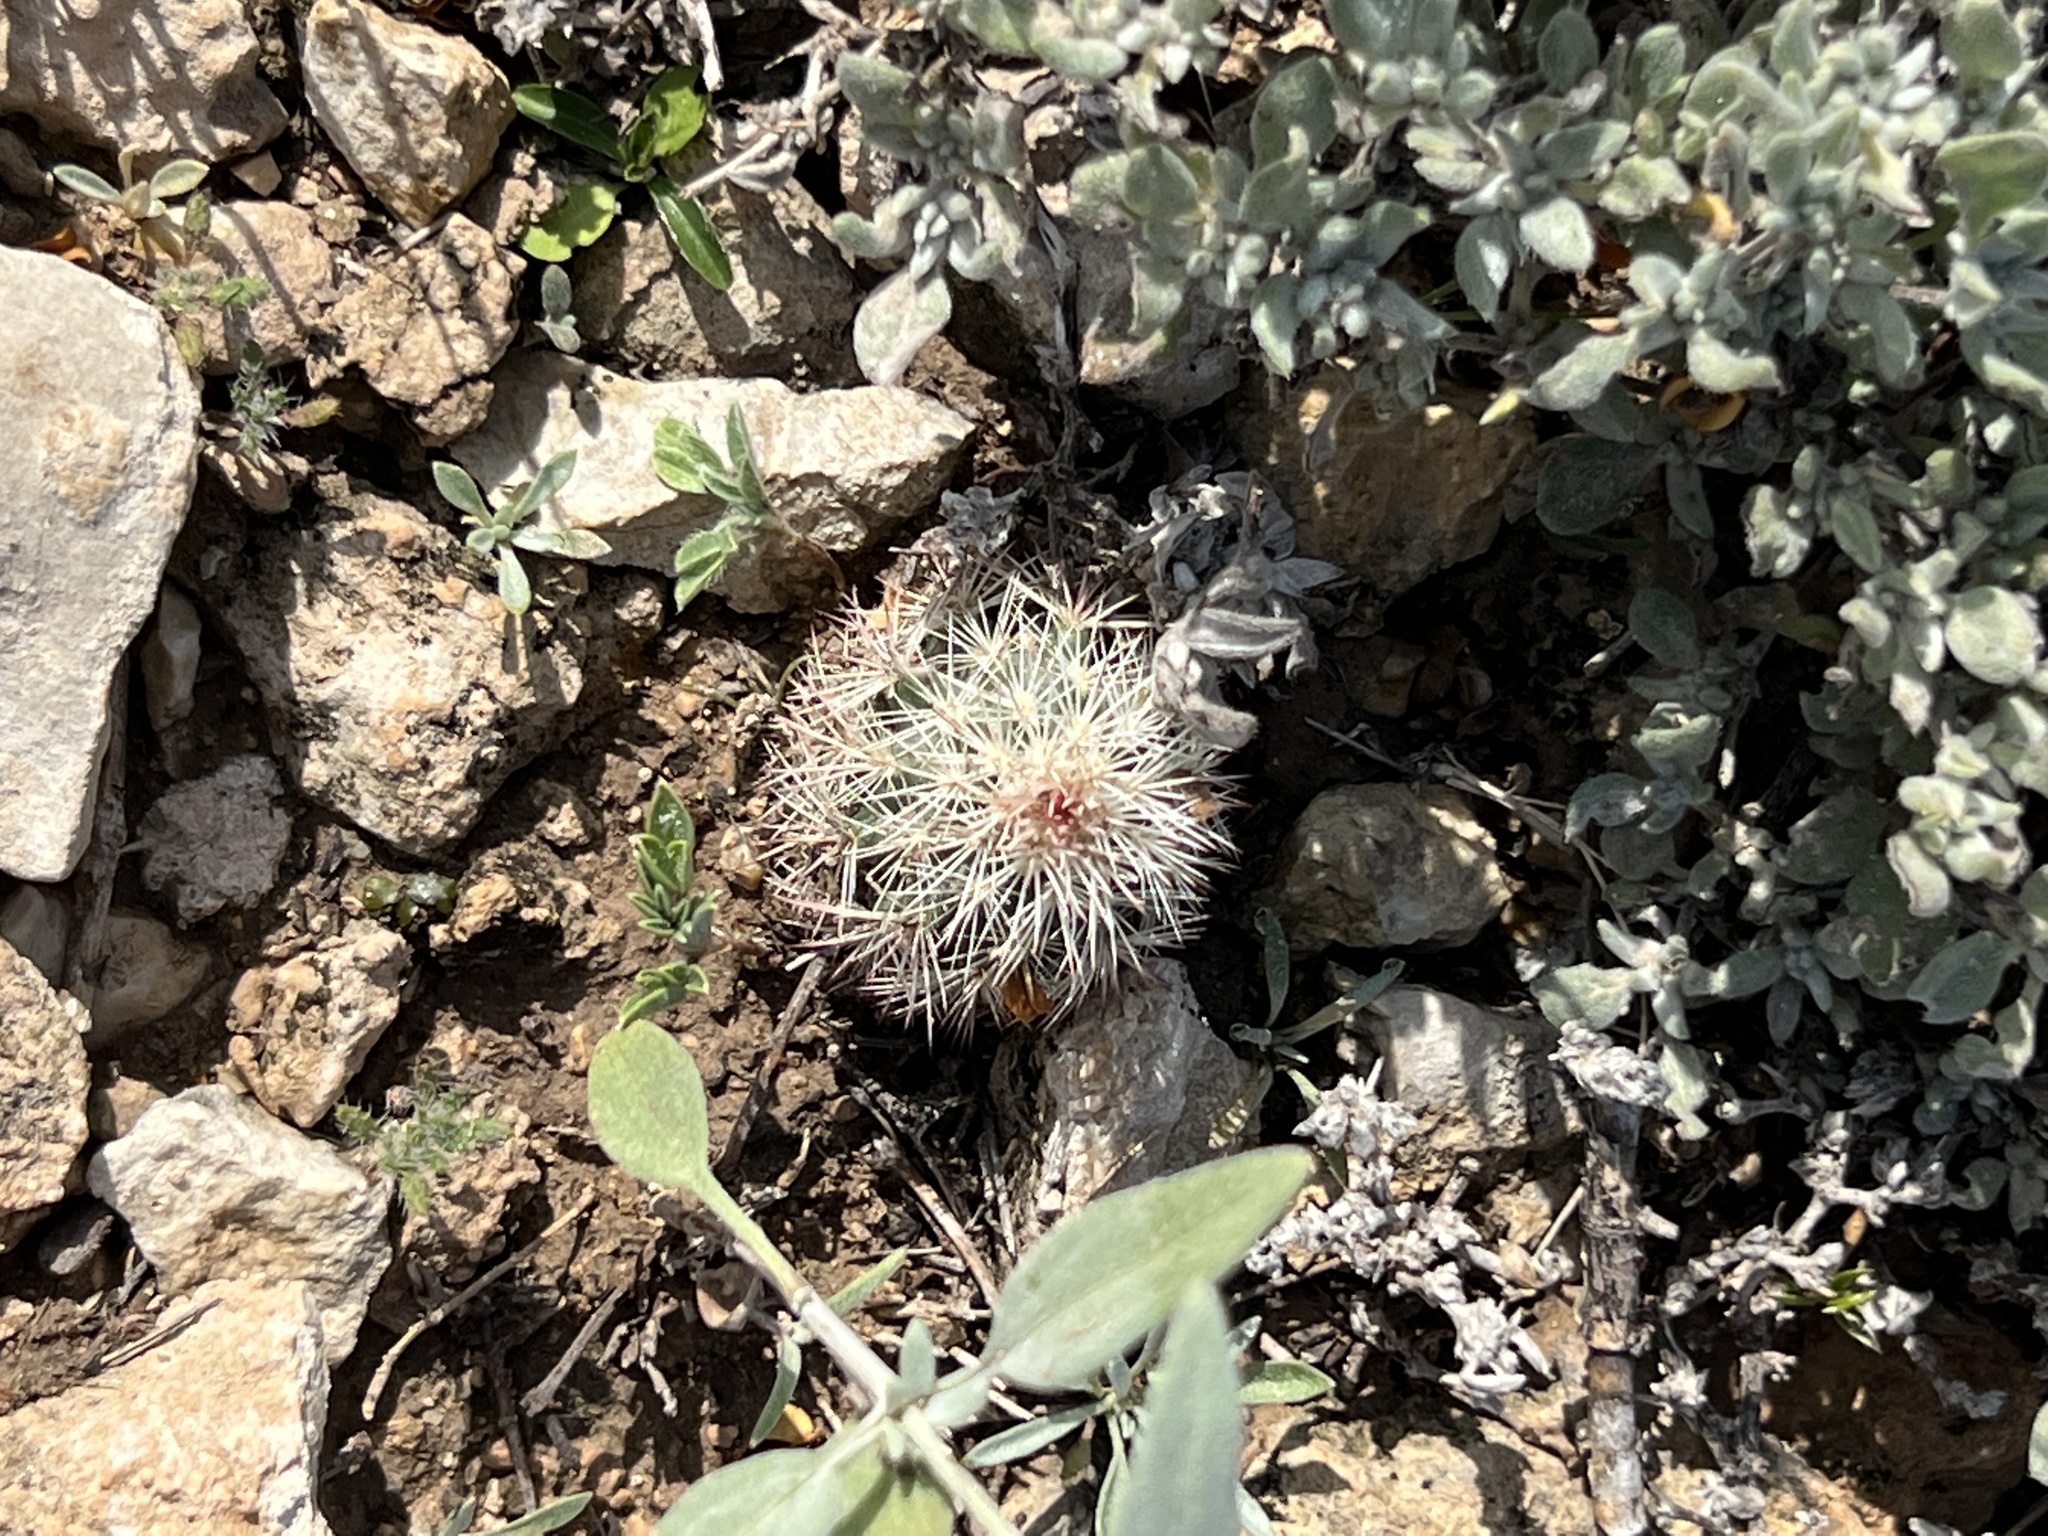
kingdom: Plantae
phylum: Tracheophyta
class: Magnoliopsida
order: Caryophyllales
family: Cactaceae
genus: Echinocereus
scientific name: Echinocereus dasyacanthus
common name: Spiny hedgehog cactus
